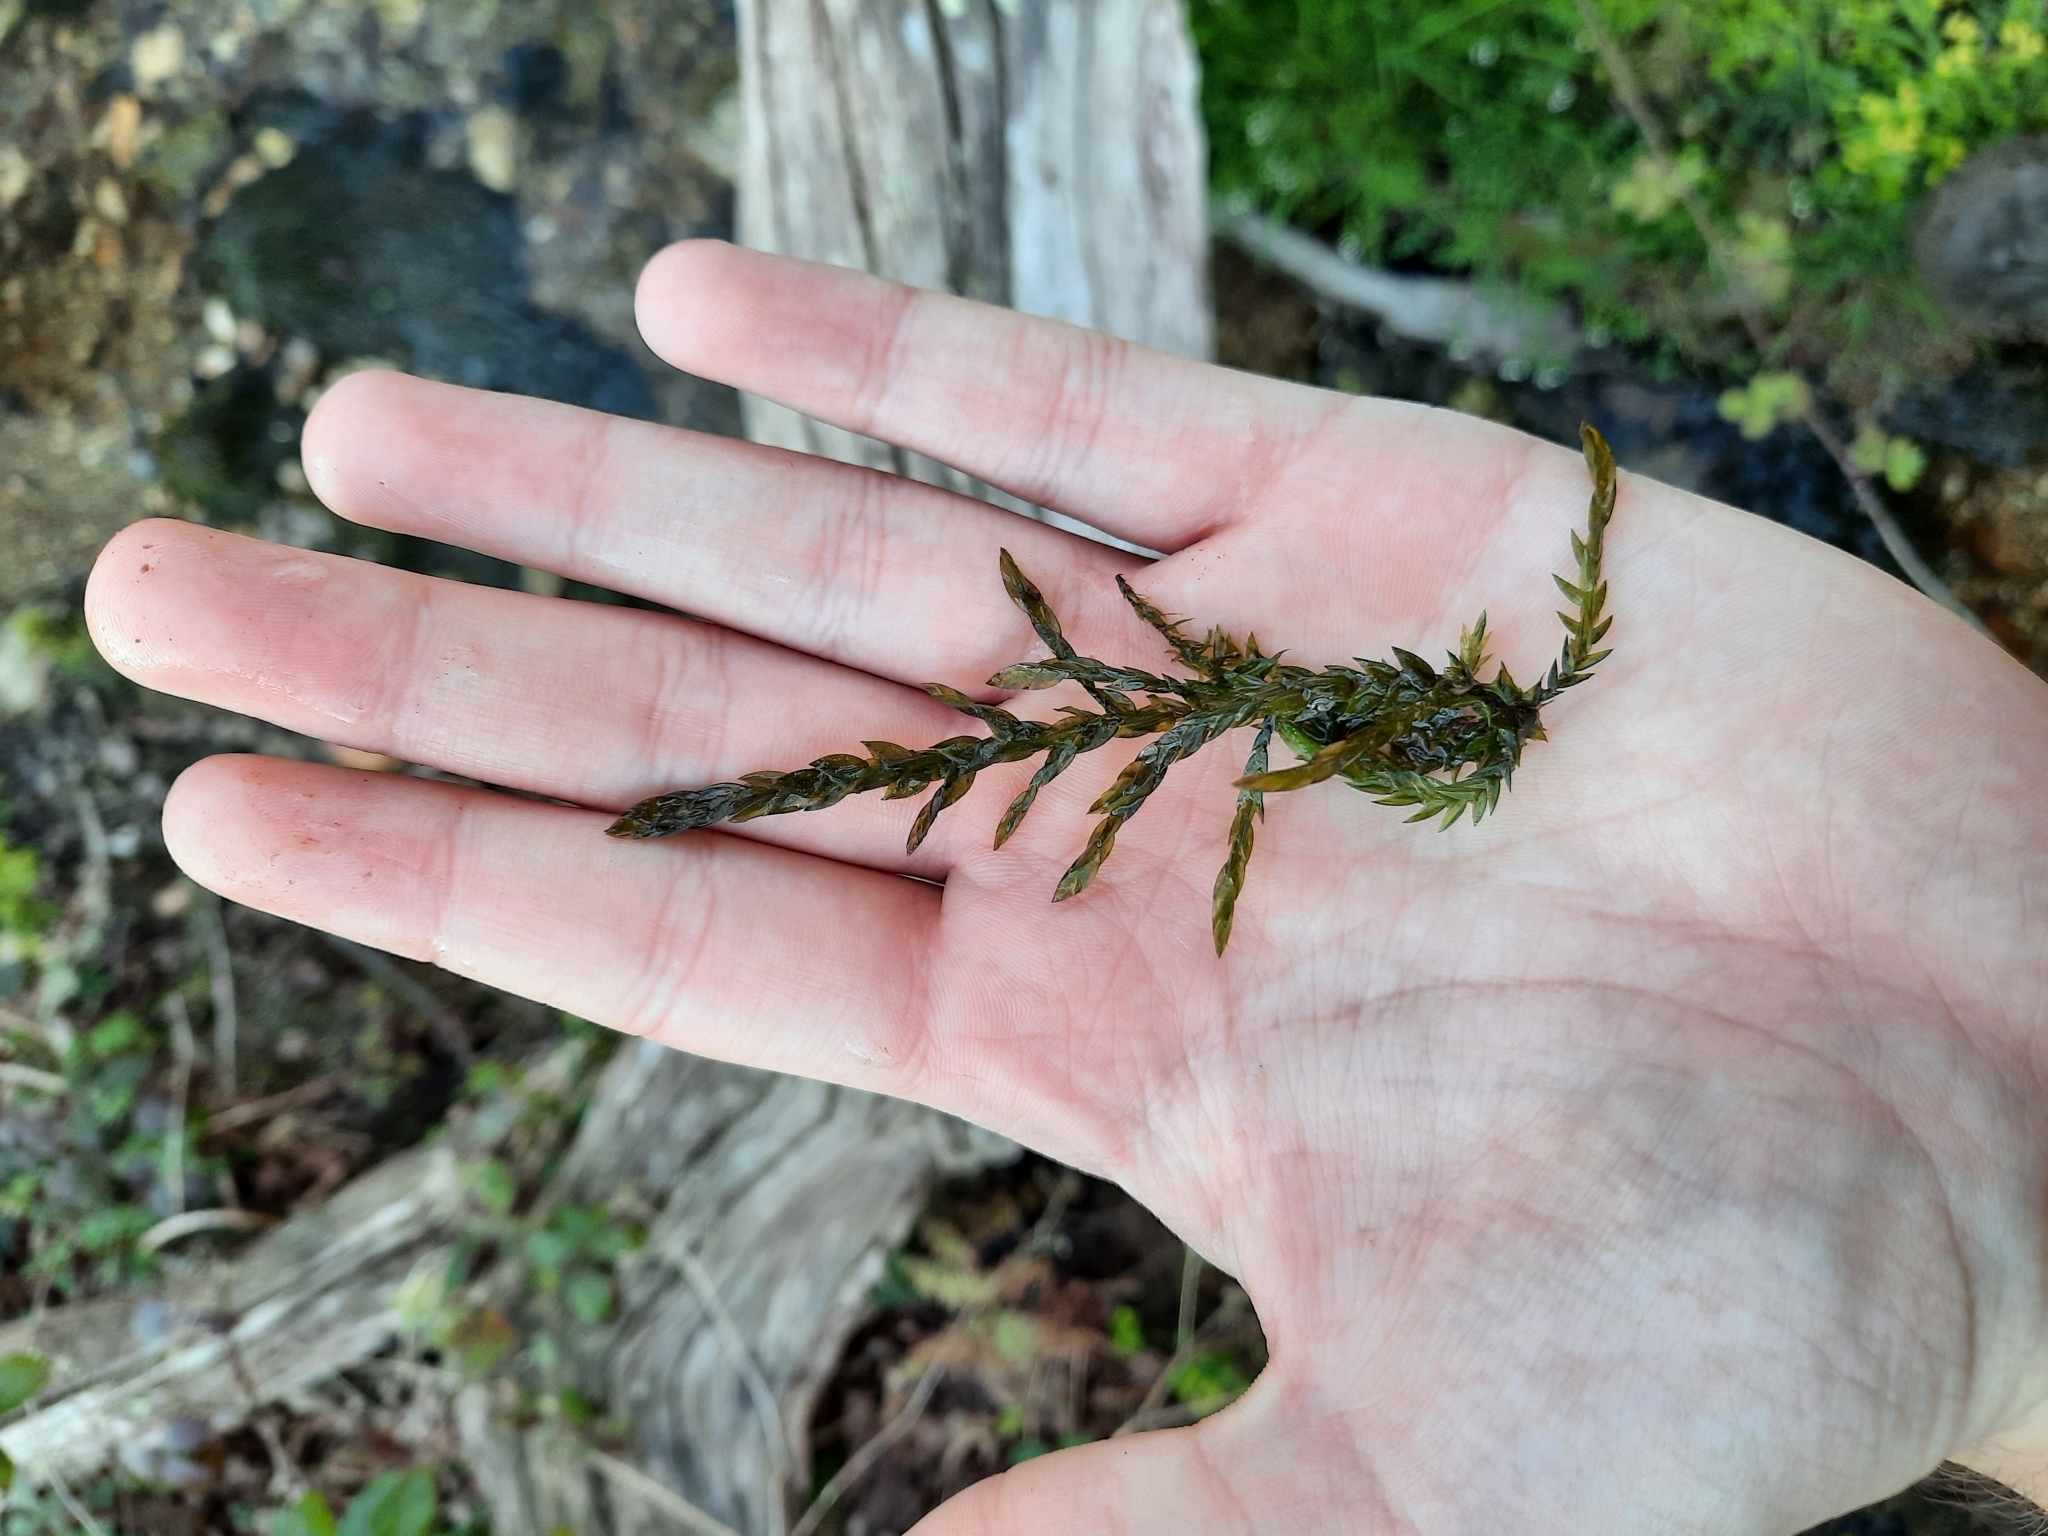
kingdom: Plantae
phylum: Bryophyta
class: Bryopsida
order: Hypnales
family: Fontinalaceae
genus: Fontinalis
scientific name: Fontinalis antipyretica
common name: Greater water-moss
